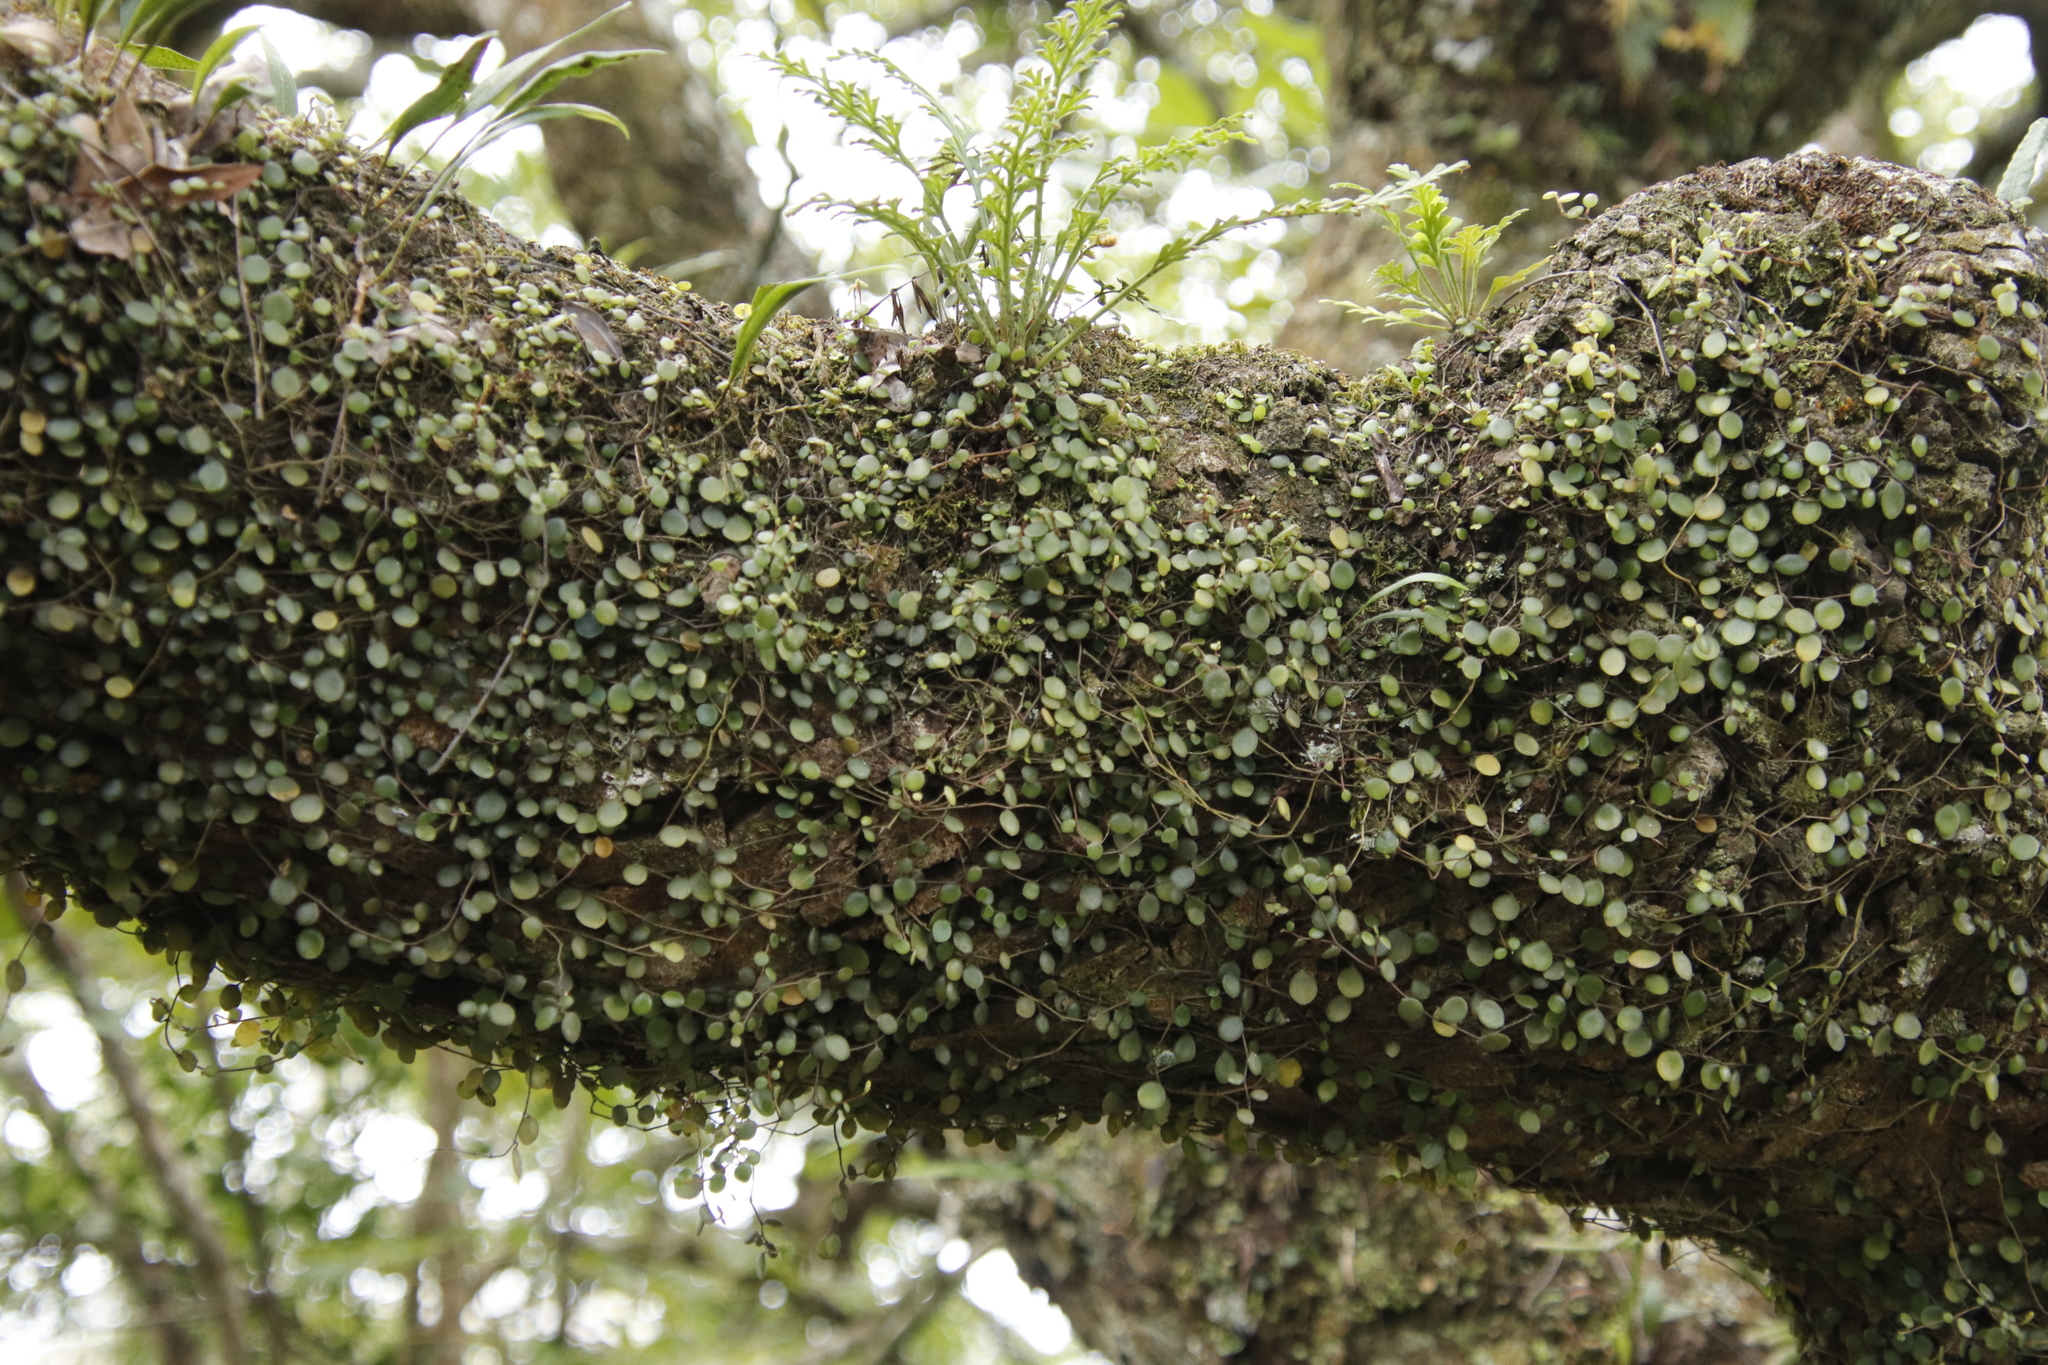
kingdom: Plantae
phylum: Tracheophyta
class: Magnoliopsida
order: Piperales
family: Piperaceae
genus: Peperomia
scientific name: Peperomia bangroana
